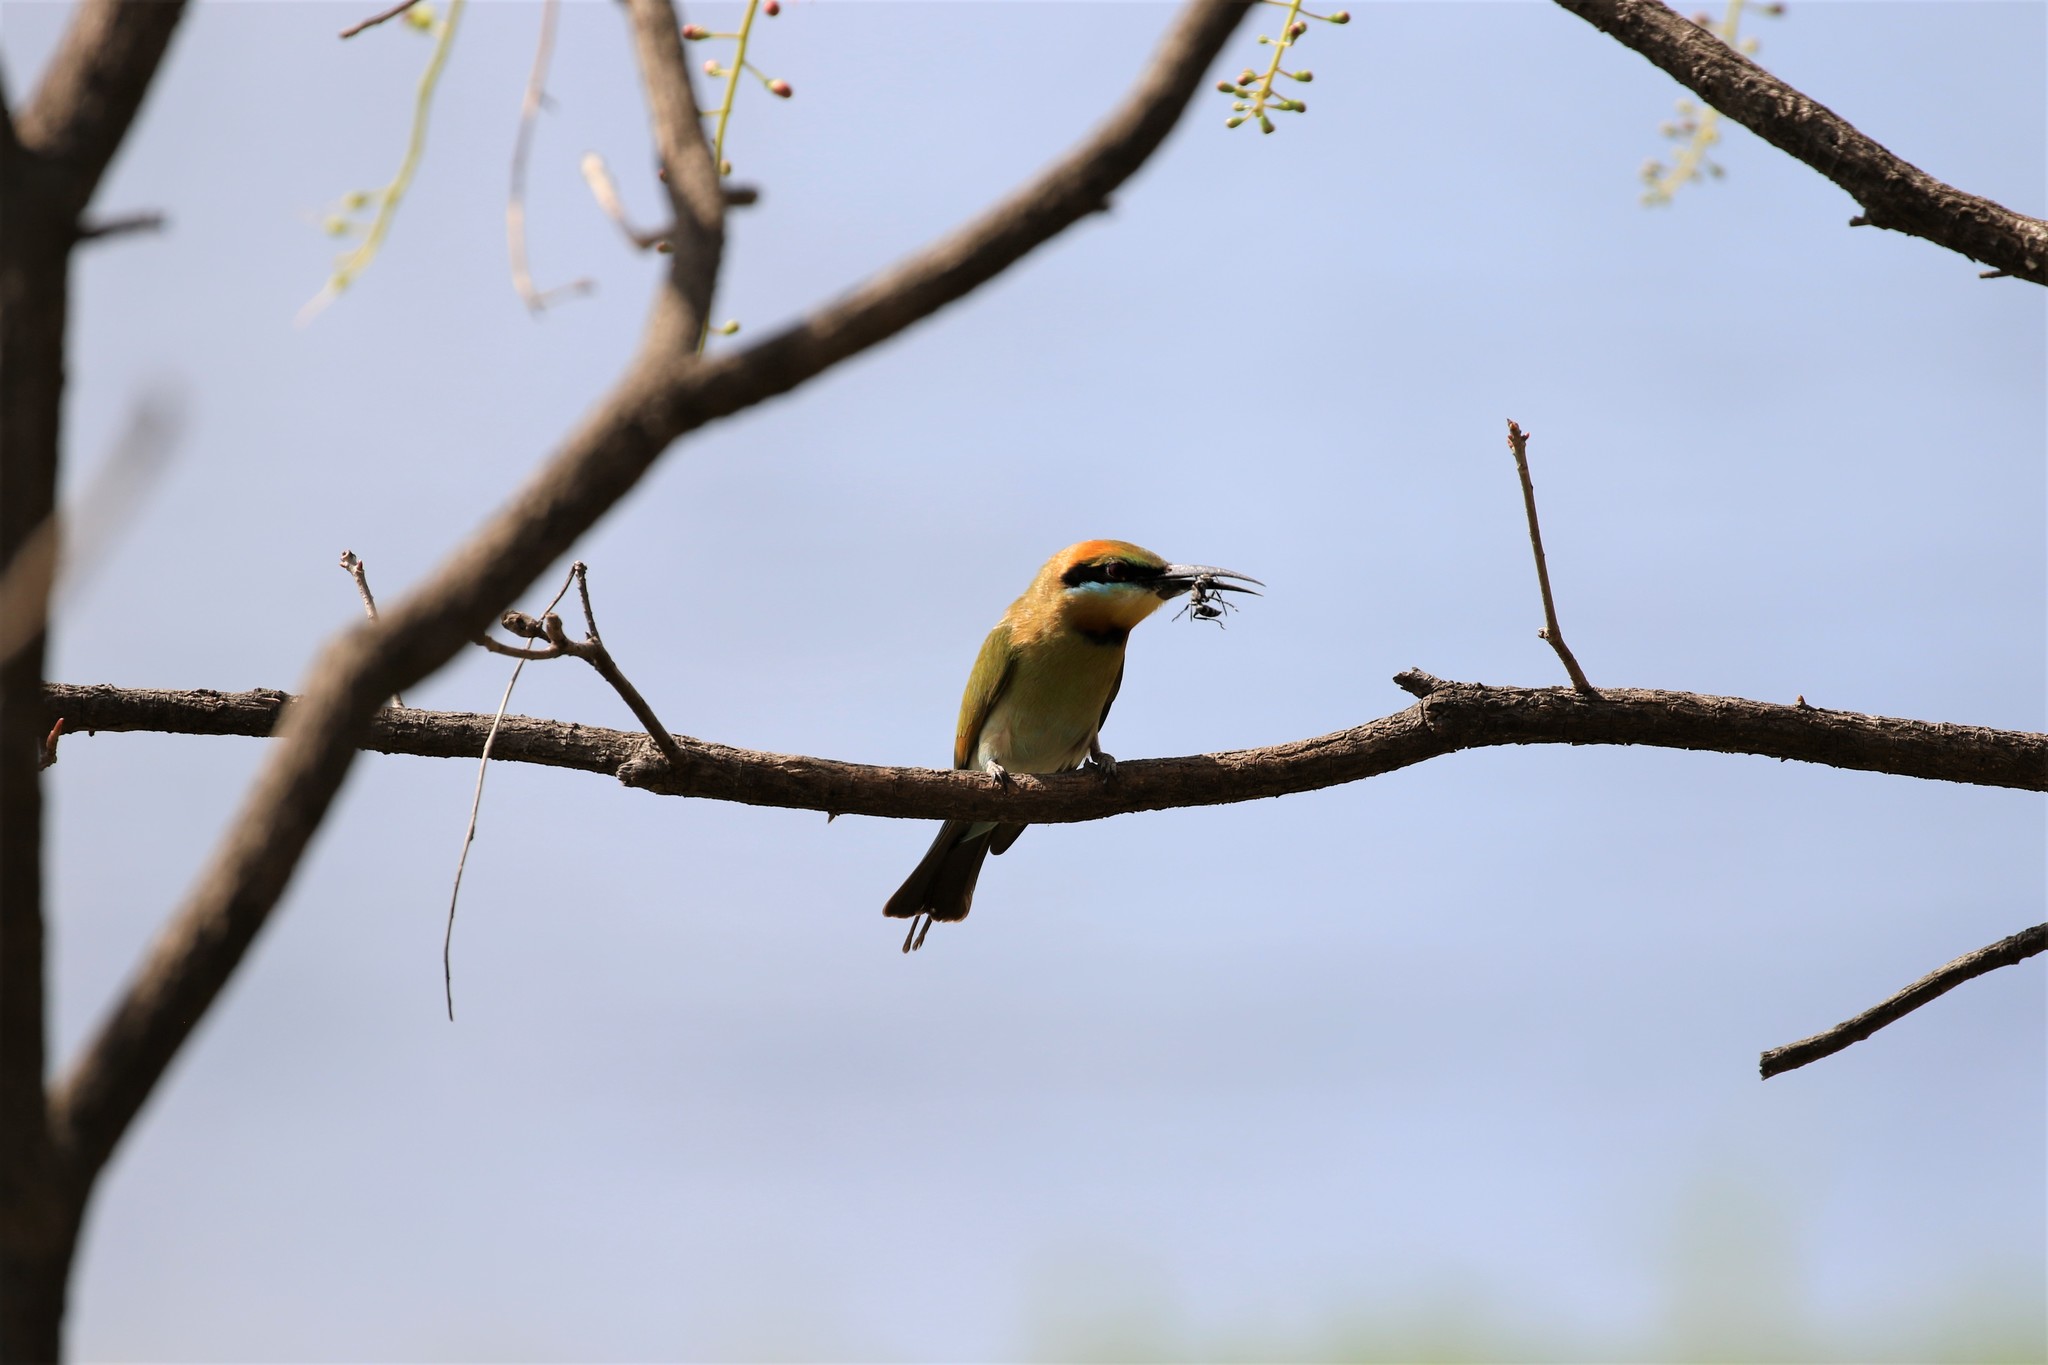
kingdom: Animalia
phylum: Chordata
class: Aves
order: Coraciiformes
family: Meropidae
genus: Merops
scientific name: Merops ornatus
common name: Rainbow bee-eater
